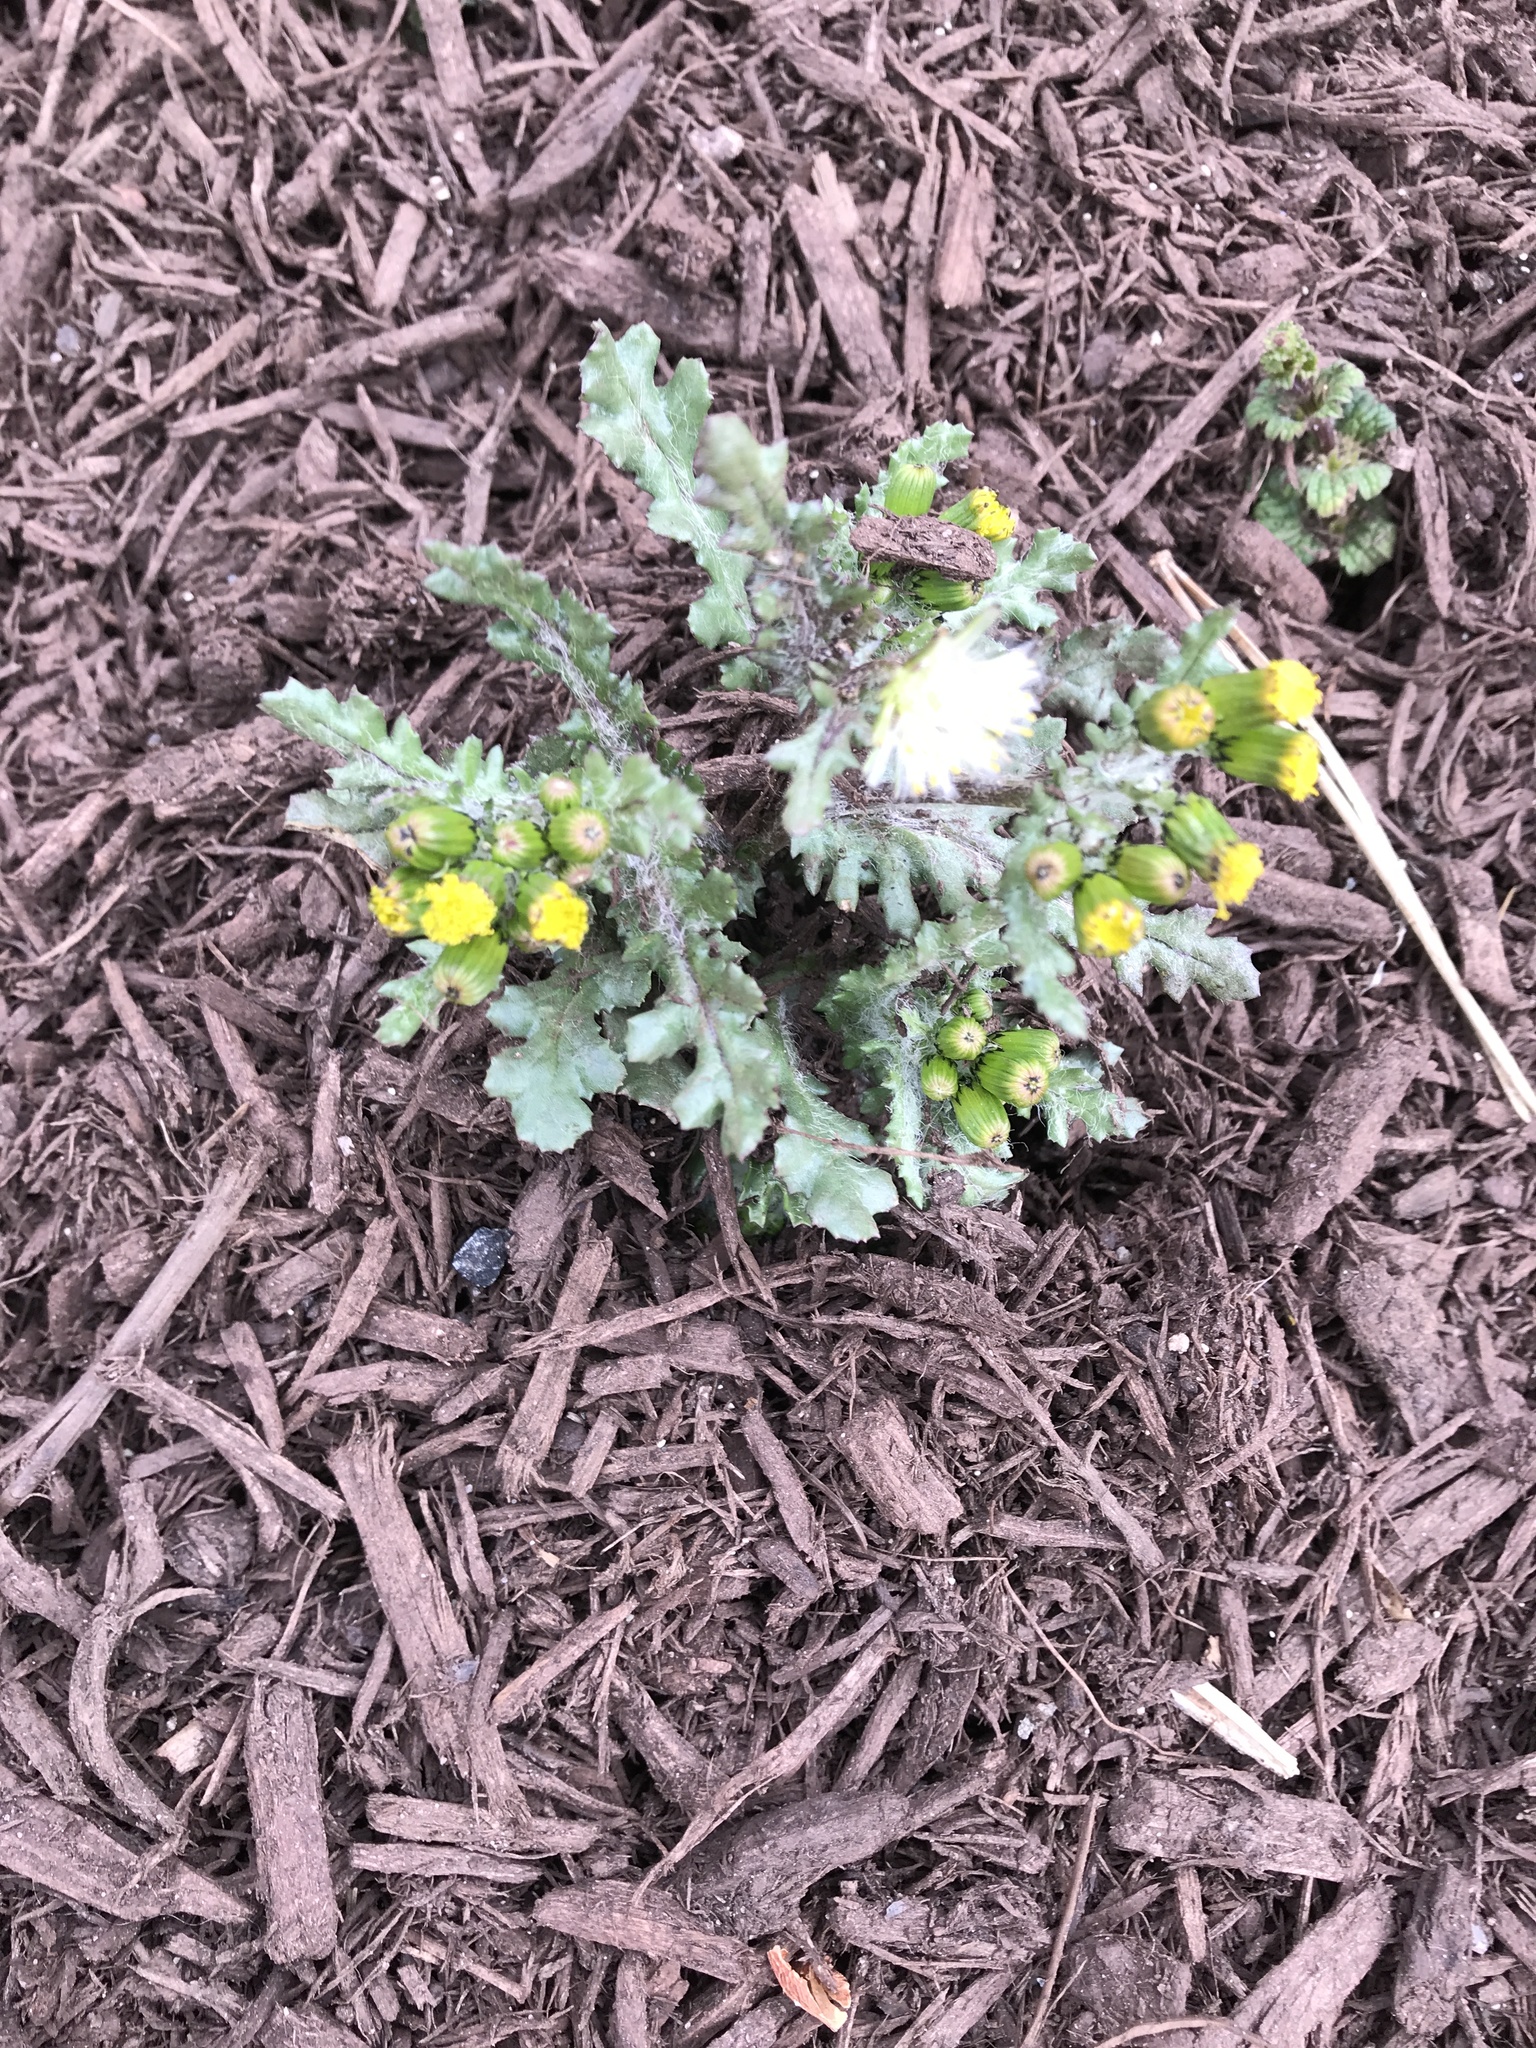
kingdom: Plantae
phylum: Tracheophyta
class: Magnoliopsida
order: Asterales
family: Asteraceae
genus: Senecio
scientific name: Senecio vulgaris
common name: Old-man-in-the-spring
